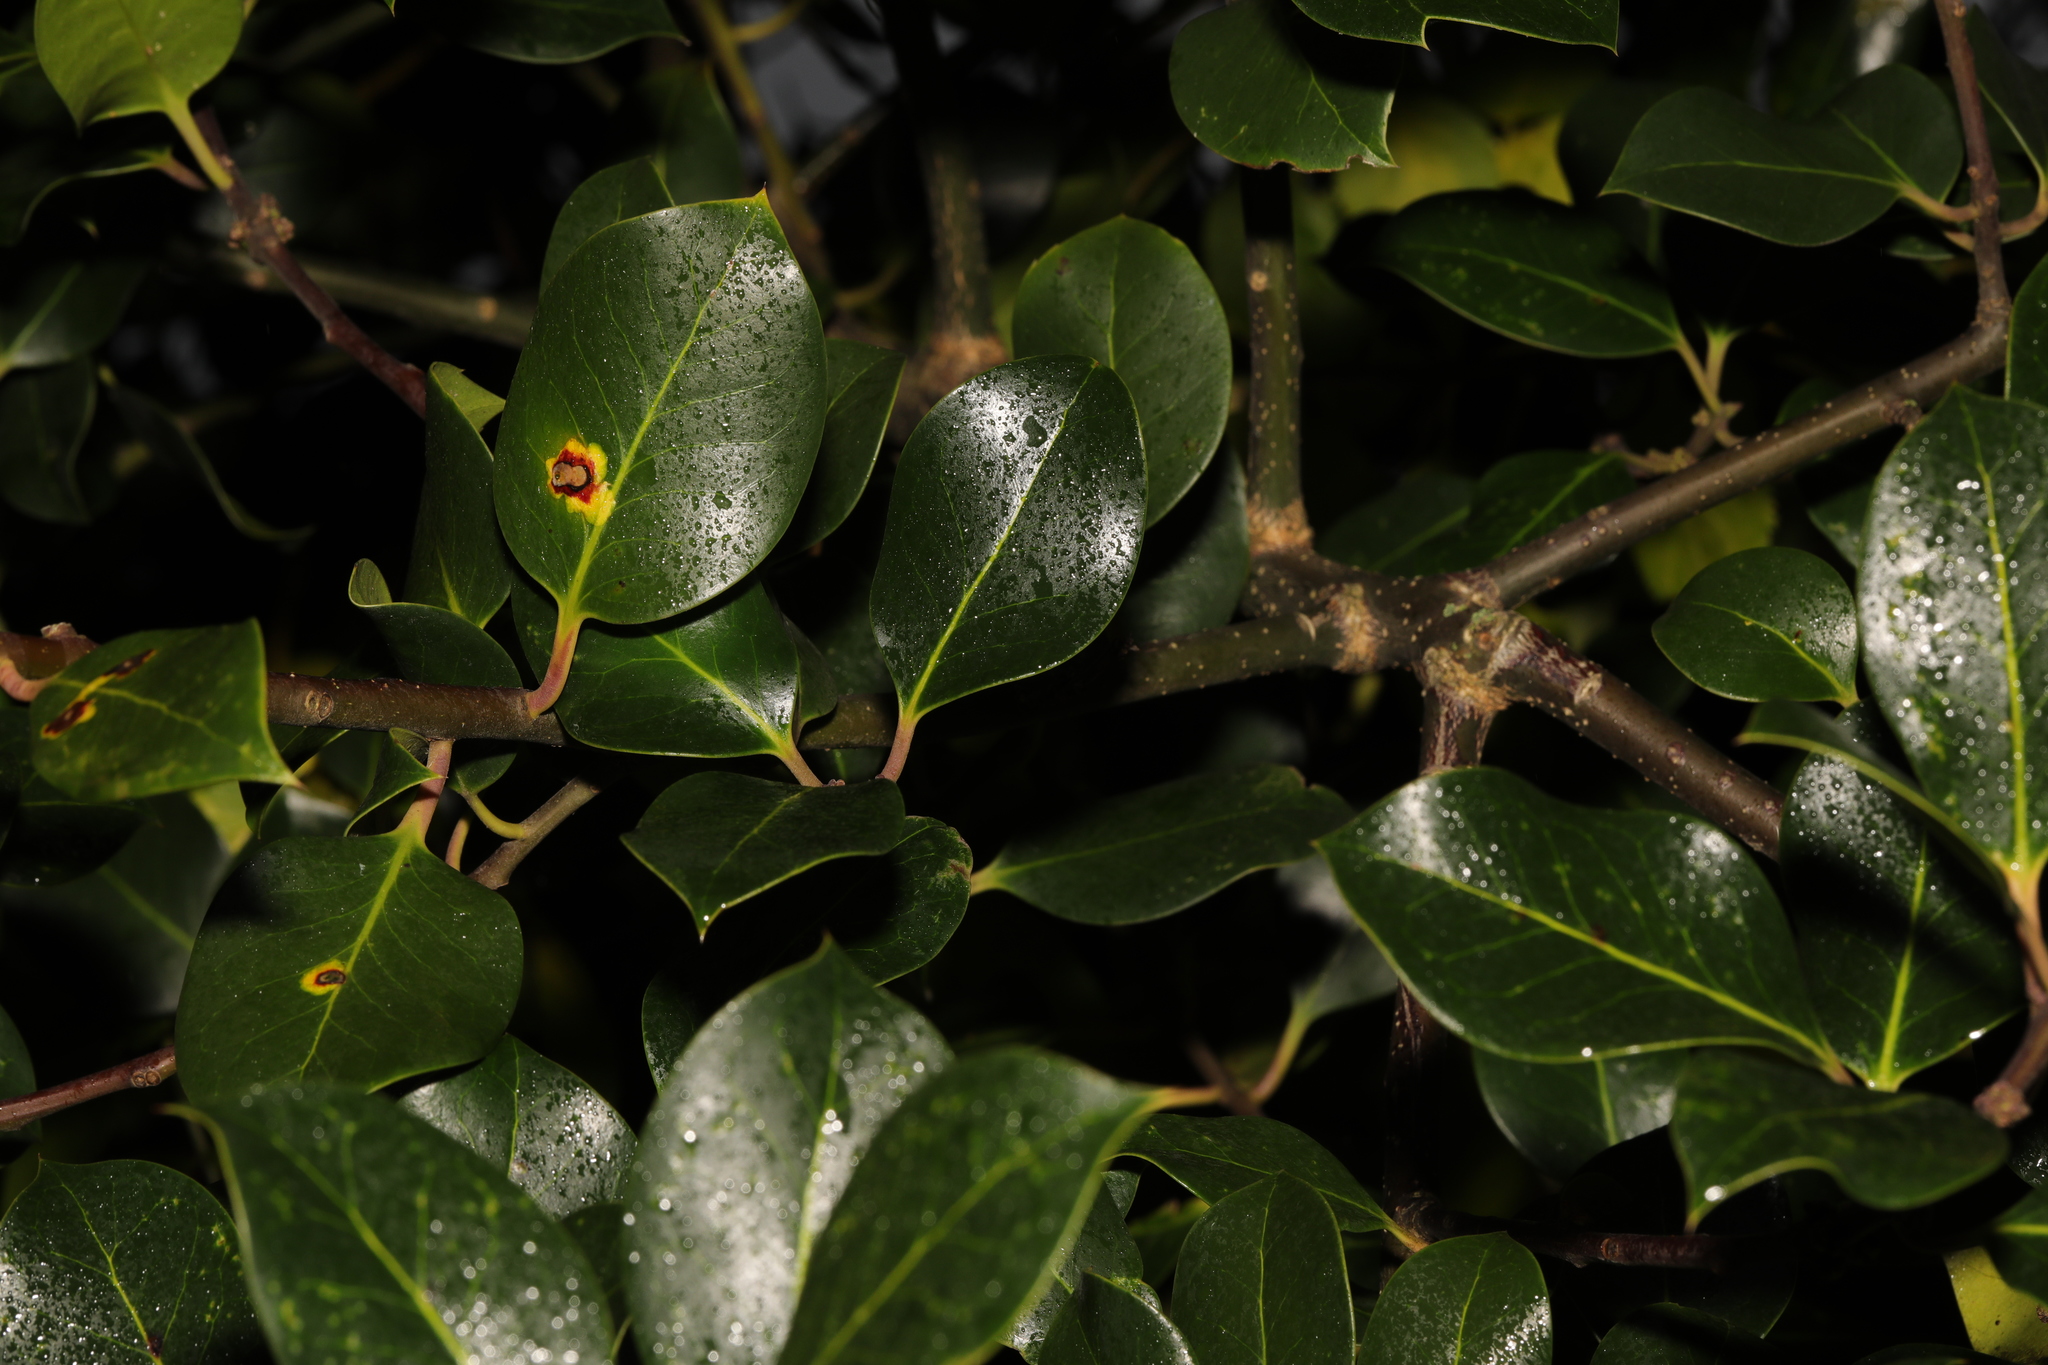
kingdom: Plantae
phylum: Tracheophyta
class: Magnoliopsida
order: Aquifoliales
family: Aquifoliaceae
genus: Ilex
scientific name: Ilex aquifolium
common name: English holly
